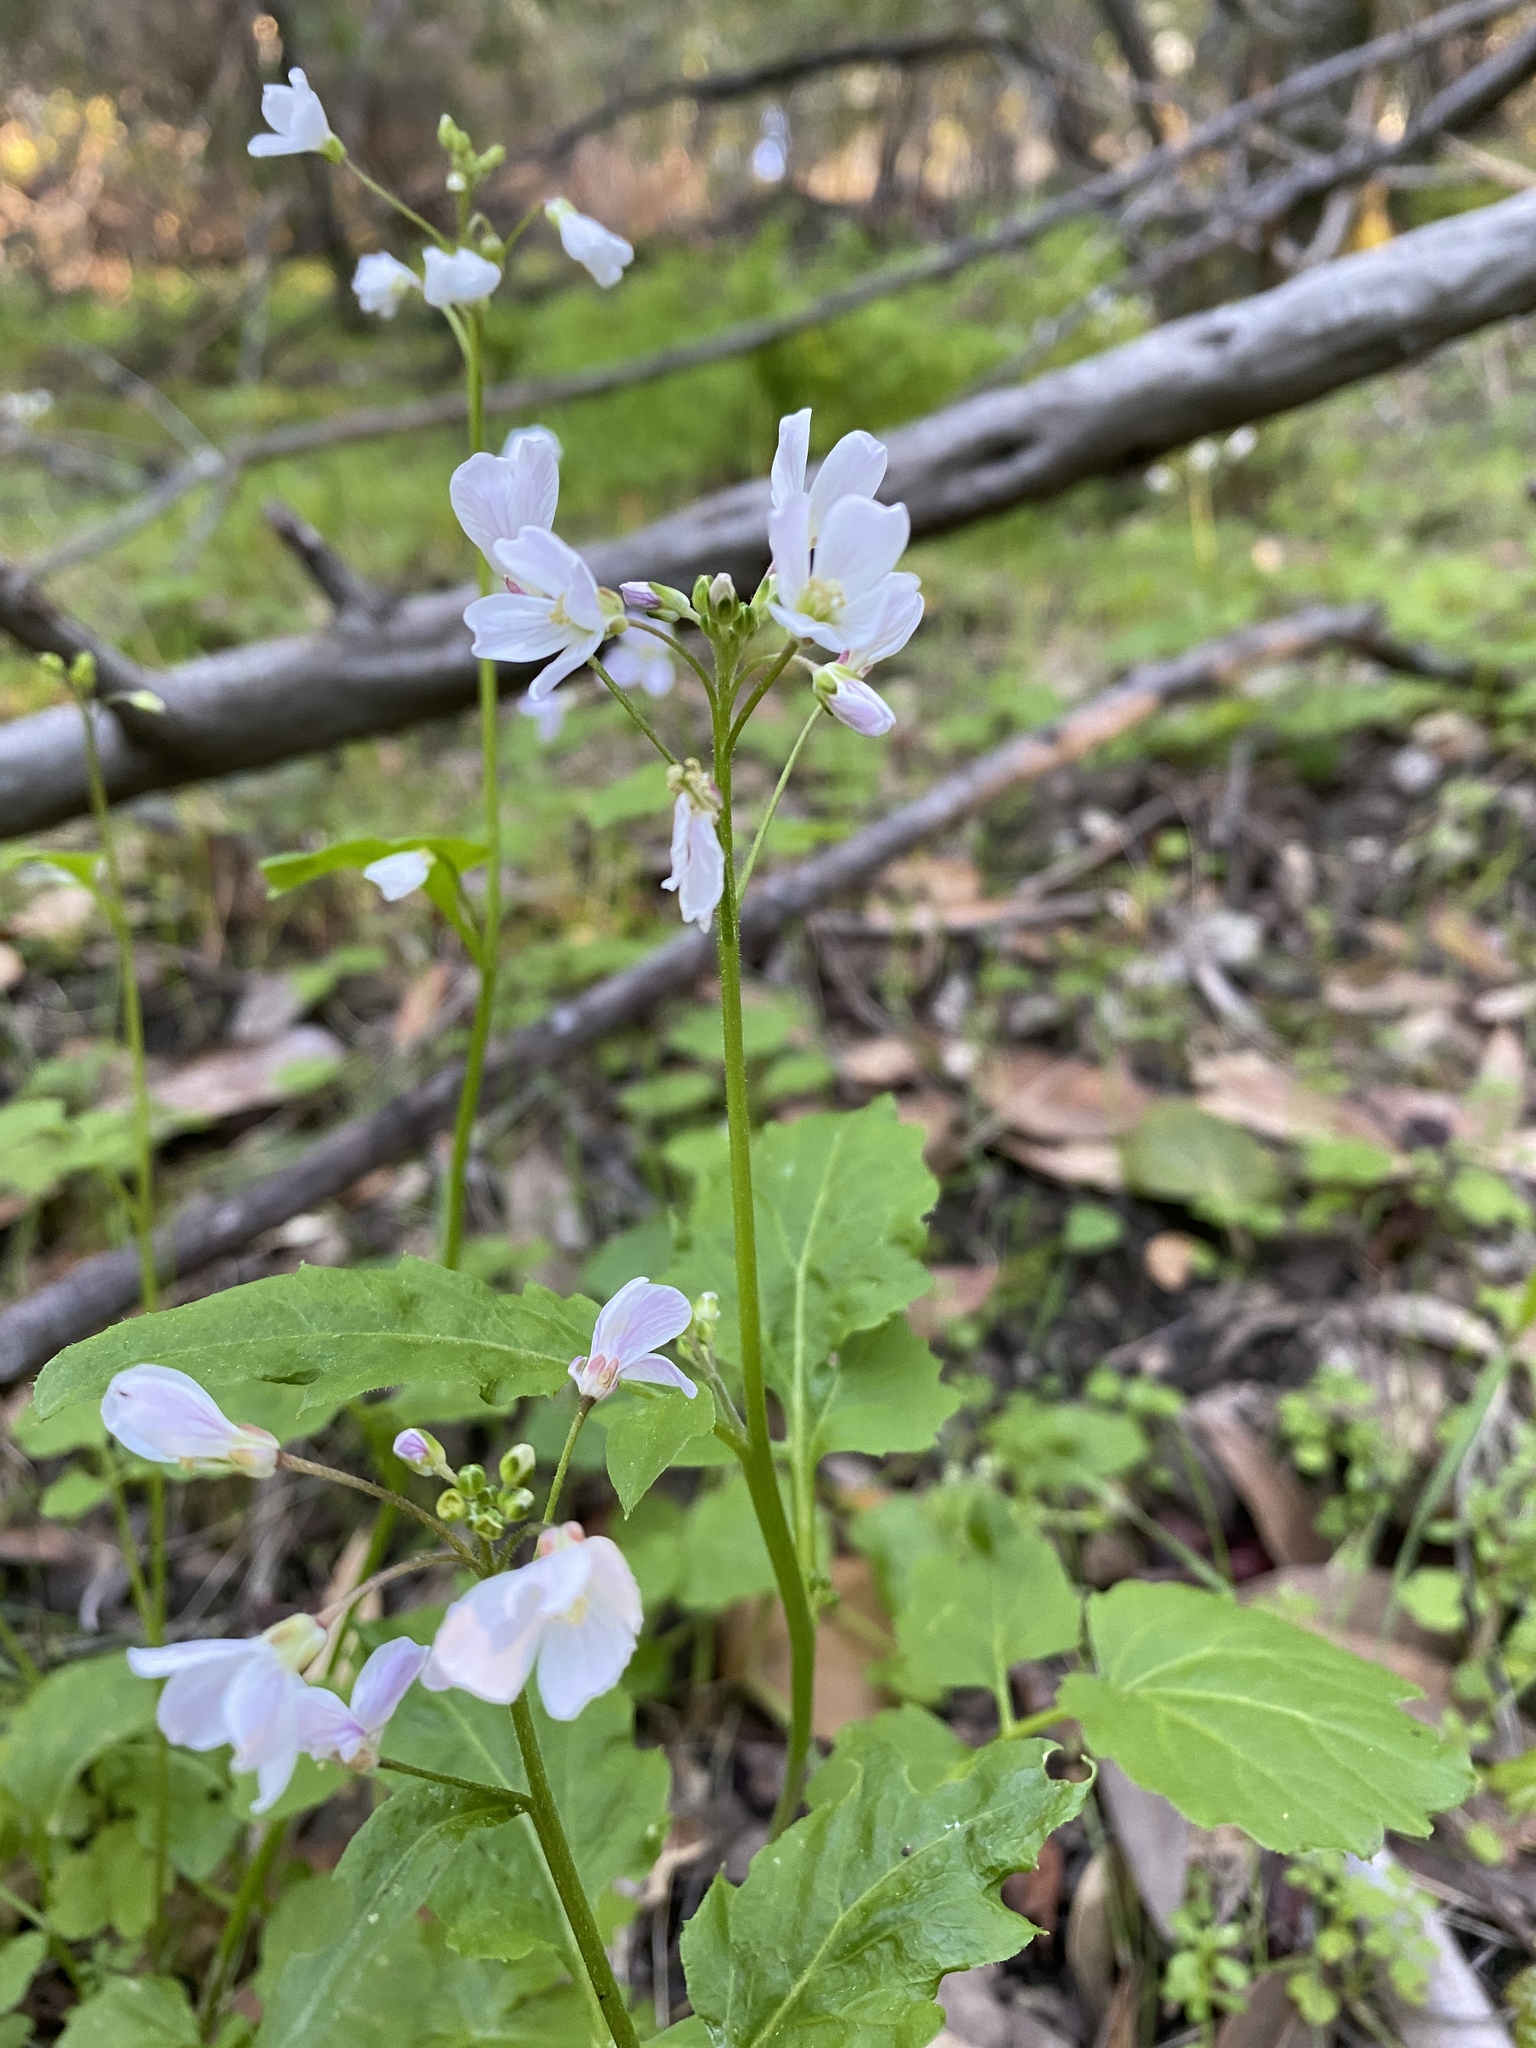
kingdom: Plantae
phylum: Tracheophyta
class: Magnoliopsida
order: Brassicales
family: Brassicaceae
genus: Cardamine
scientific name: Cardamine californica
